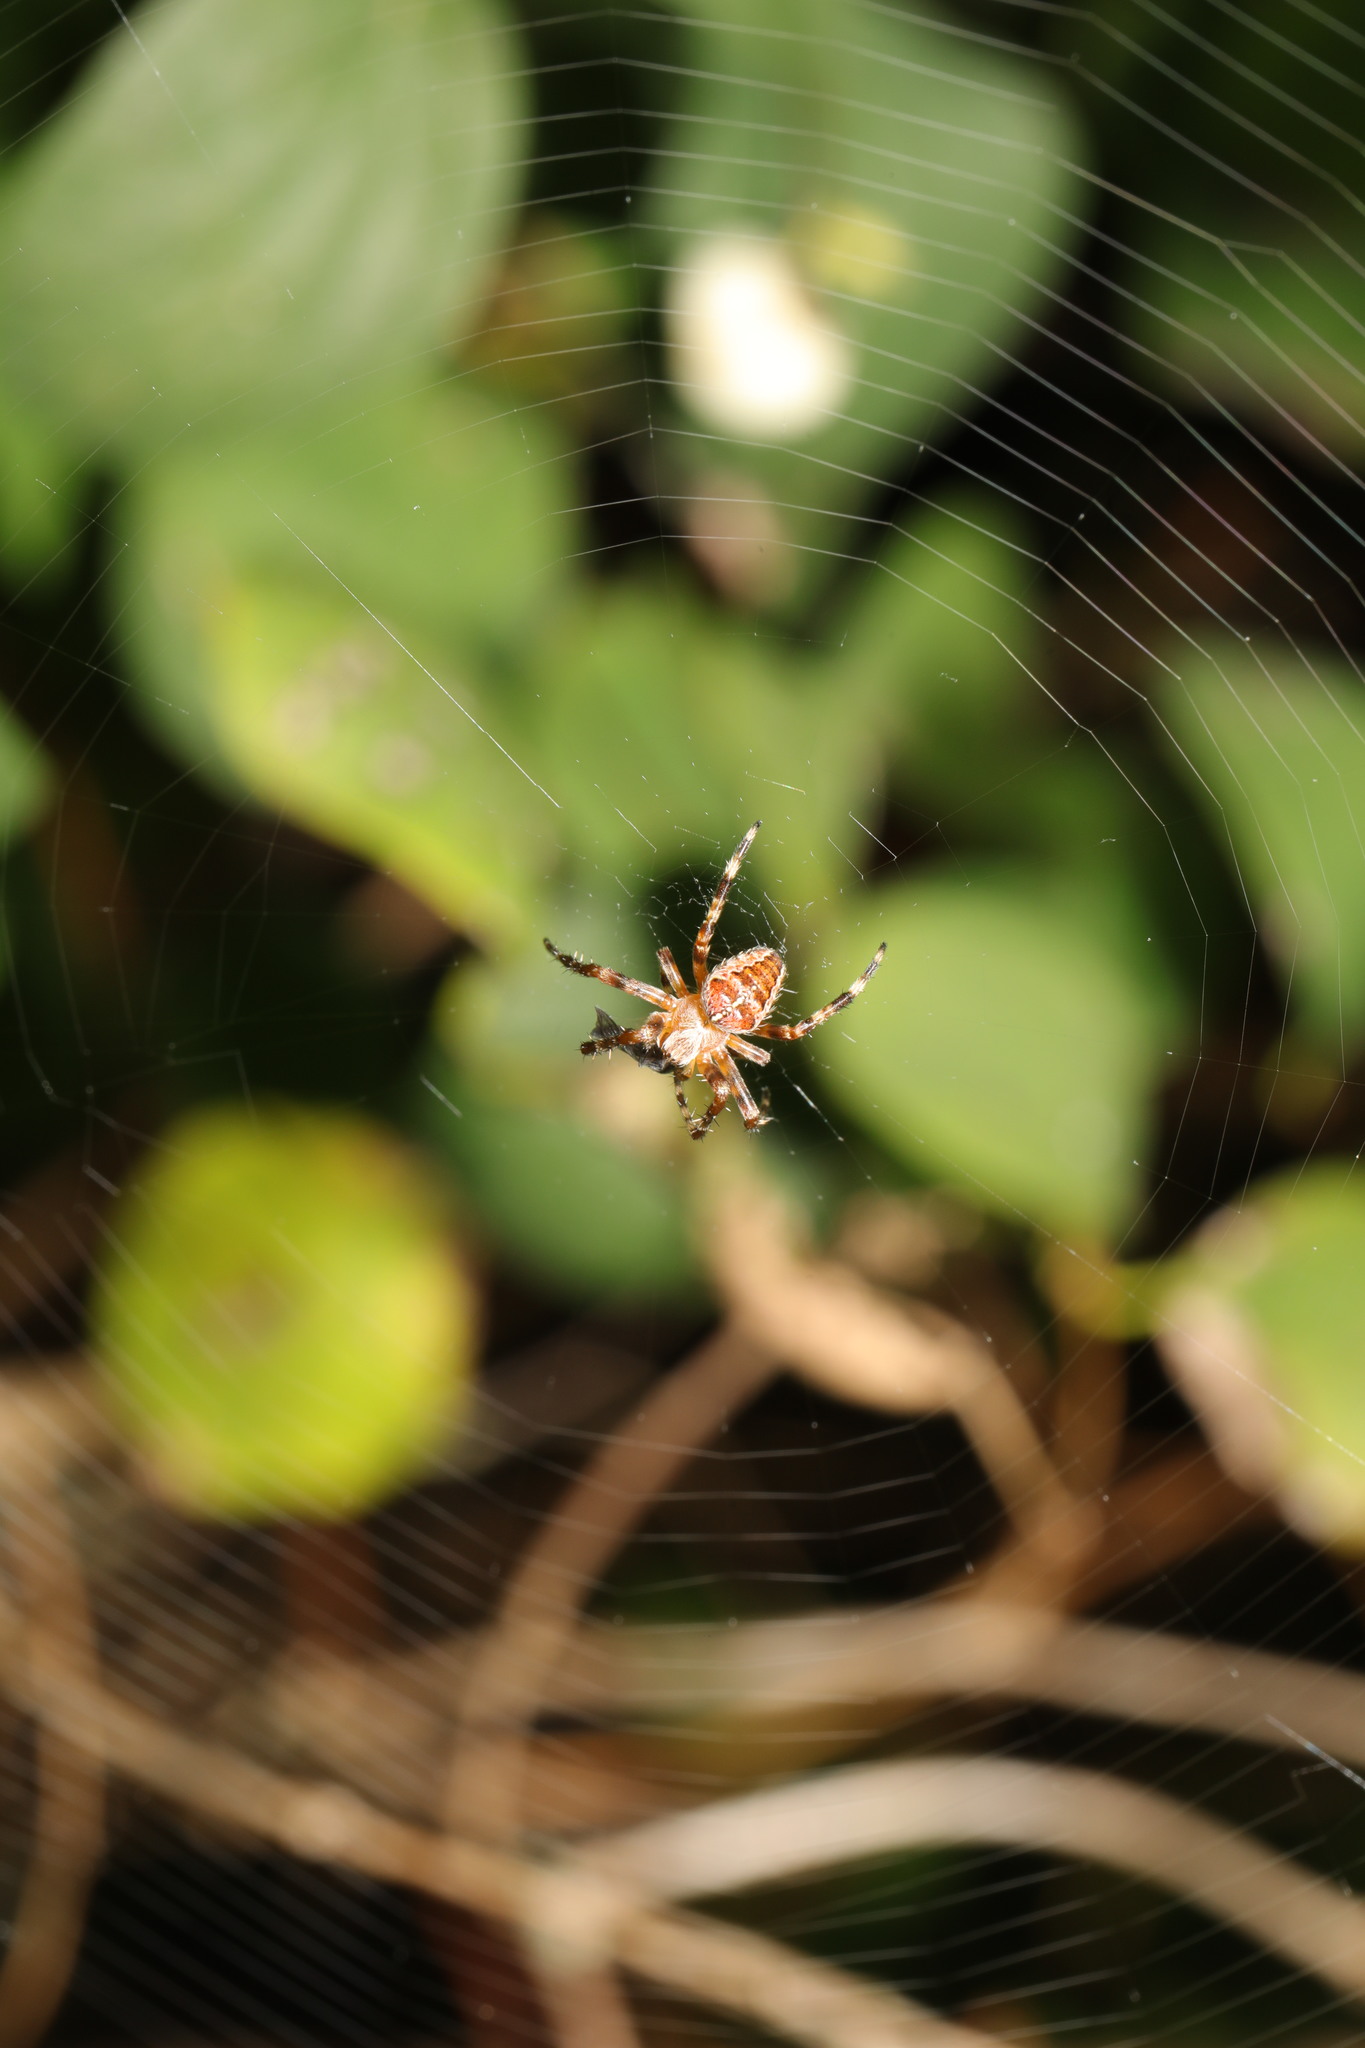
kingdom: Animalia
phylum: Arthropoda
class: Arachnida
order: Araneae
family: Araneidae
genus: Araneus
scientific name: Araneus diadematus
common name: Cross orbweaver
